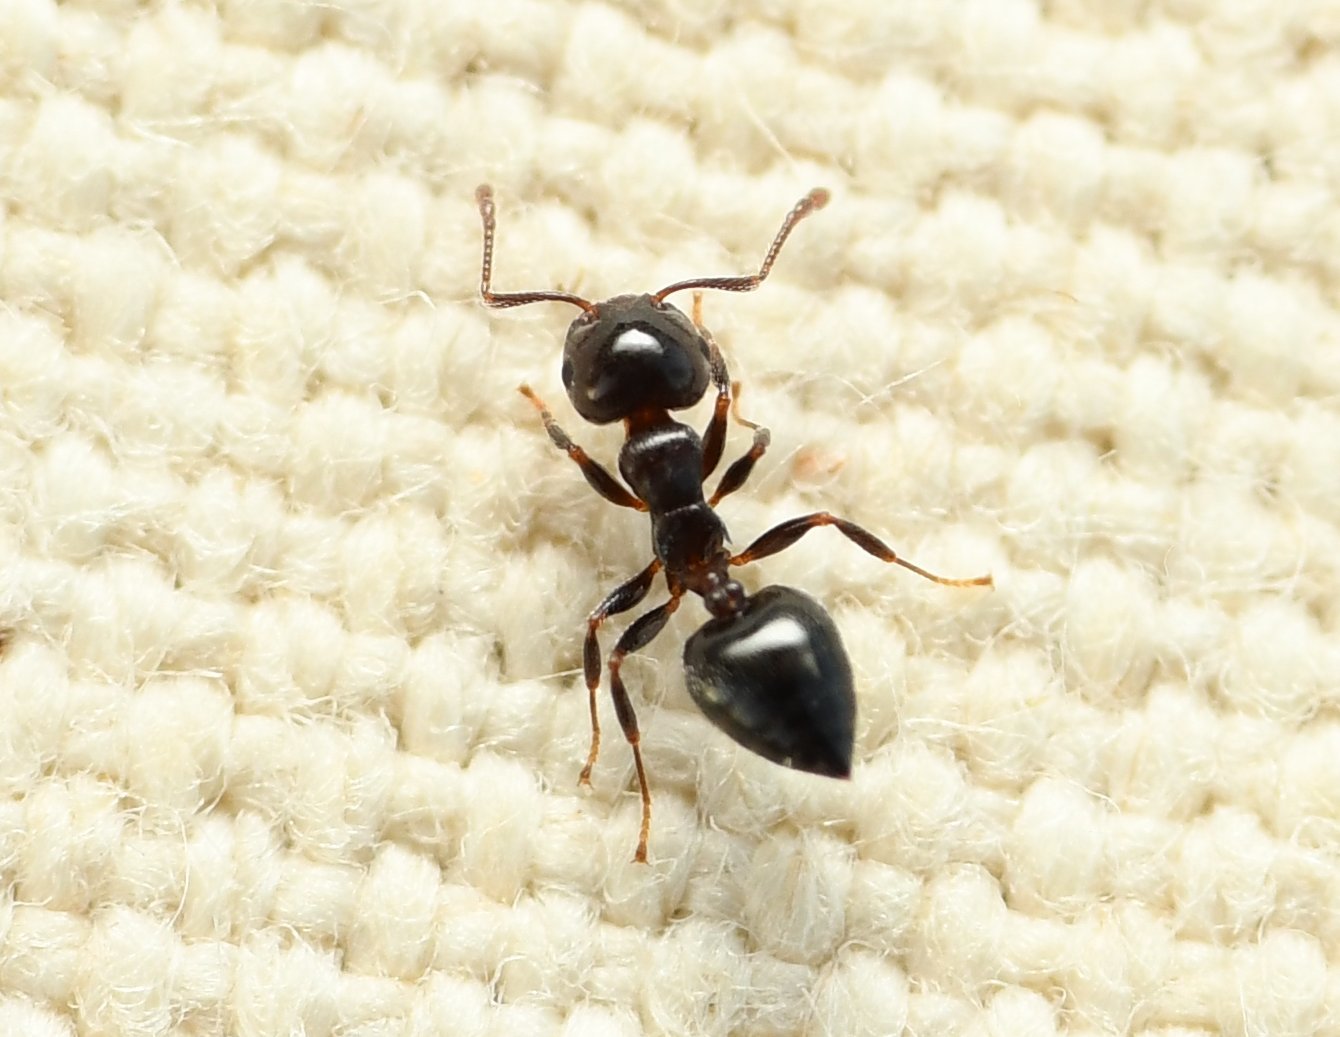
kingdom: Animalia
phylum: Arthropoda
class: Insecta
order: Hymenoptera
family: Formicidae
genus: Crematogaster
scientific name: Crematogaster ashmeadi
